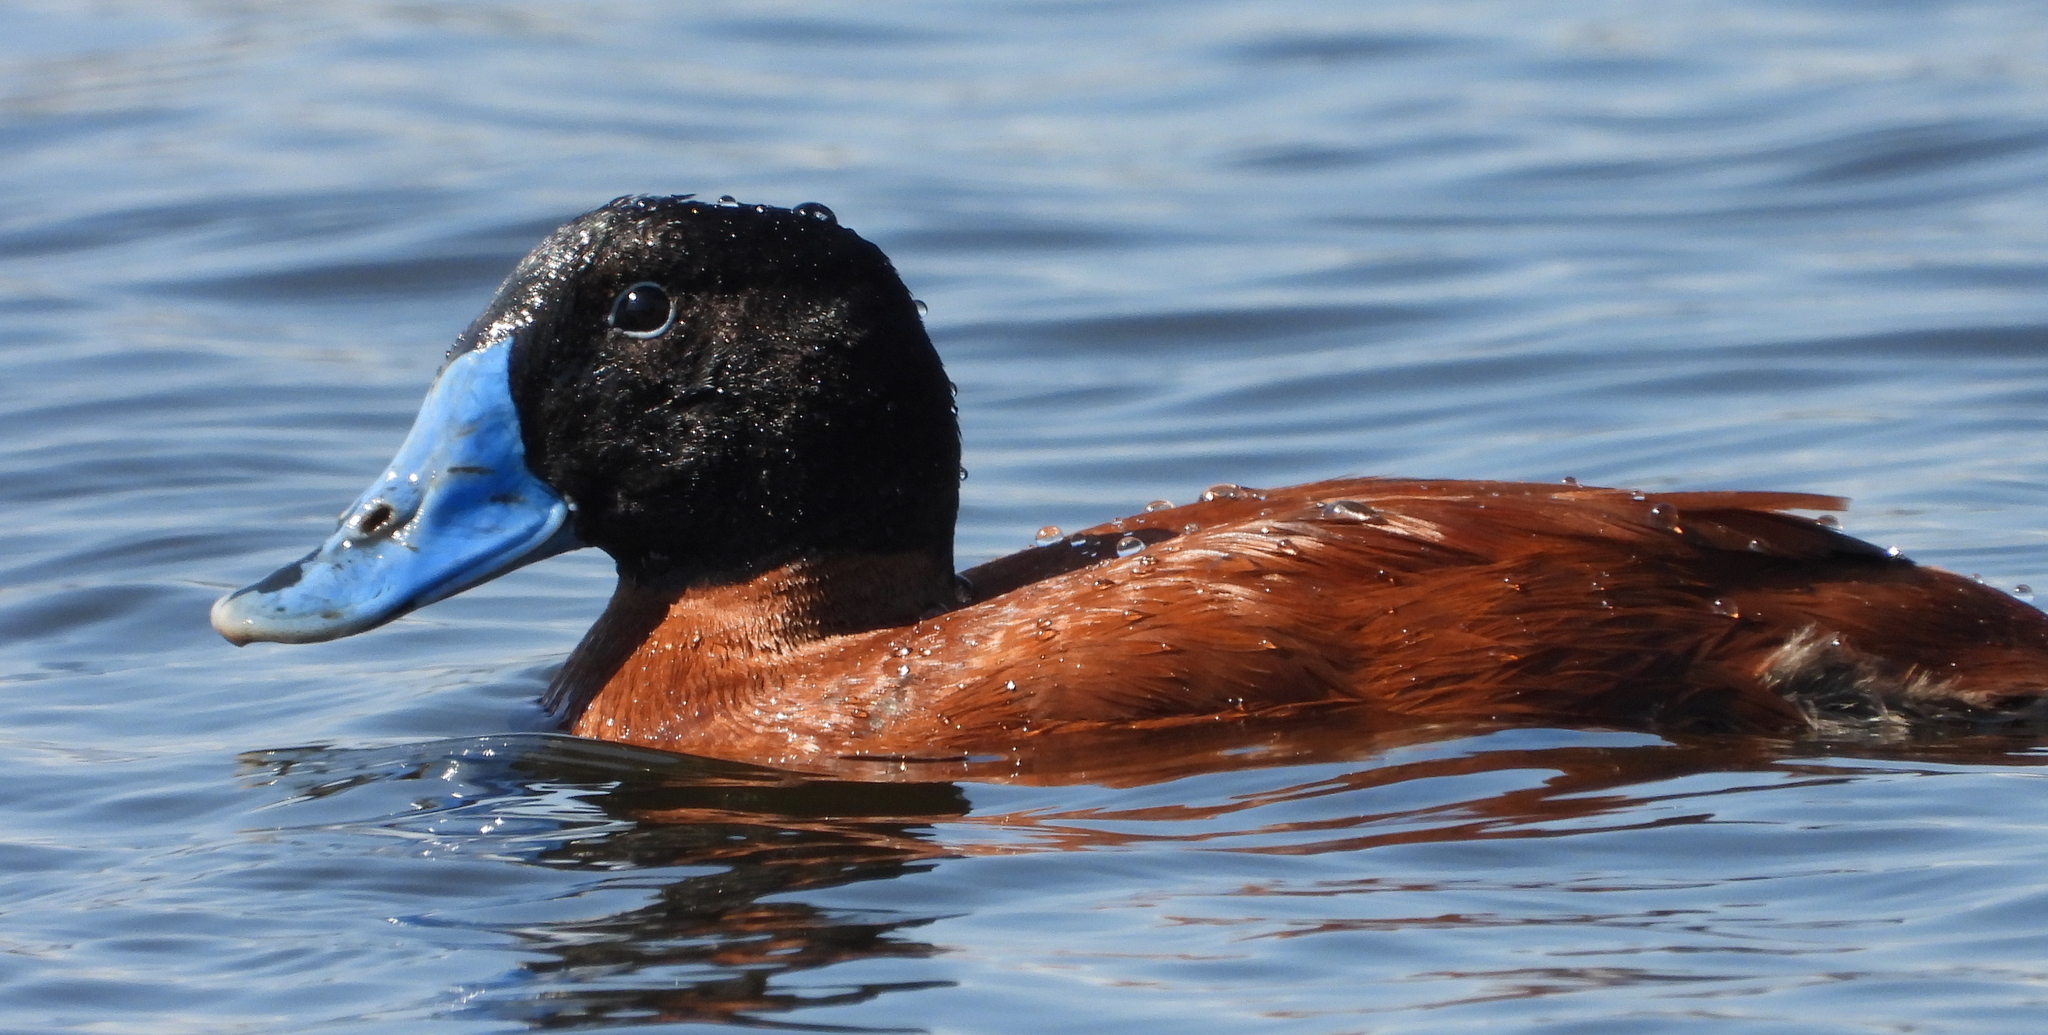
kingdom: Animalia
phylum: Chordata
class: Aves
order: Anseriformes
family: Anatidae
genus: Oxyura
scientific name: Oxyura maccoa
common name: Maccoa duck
